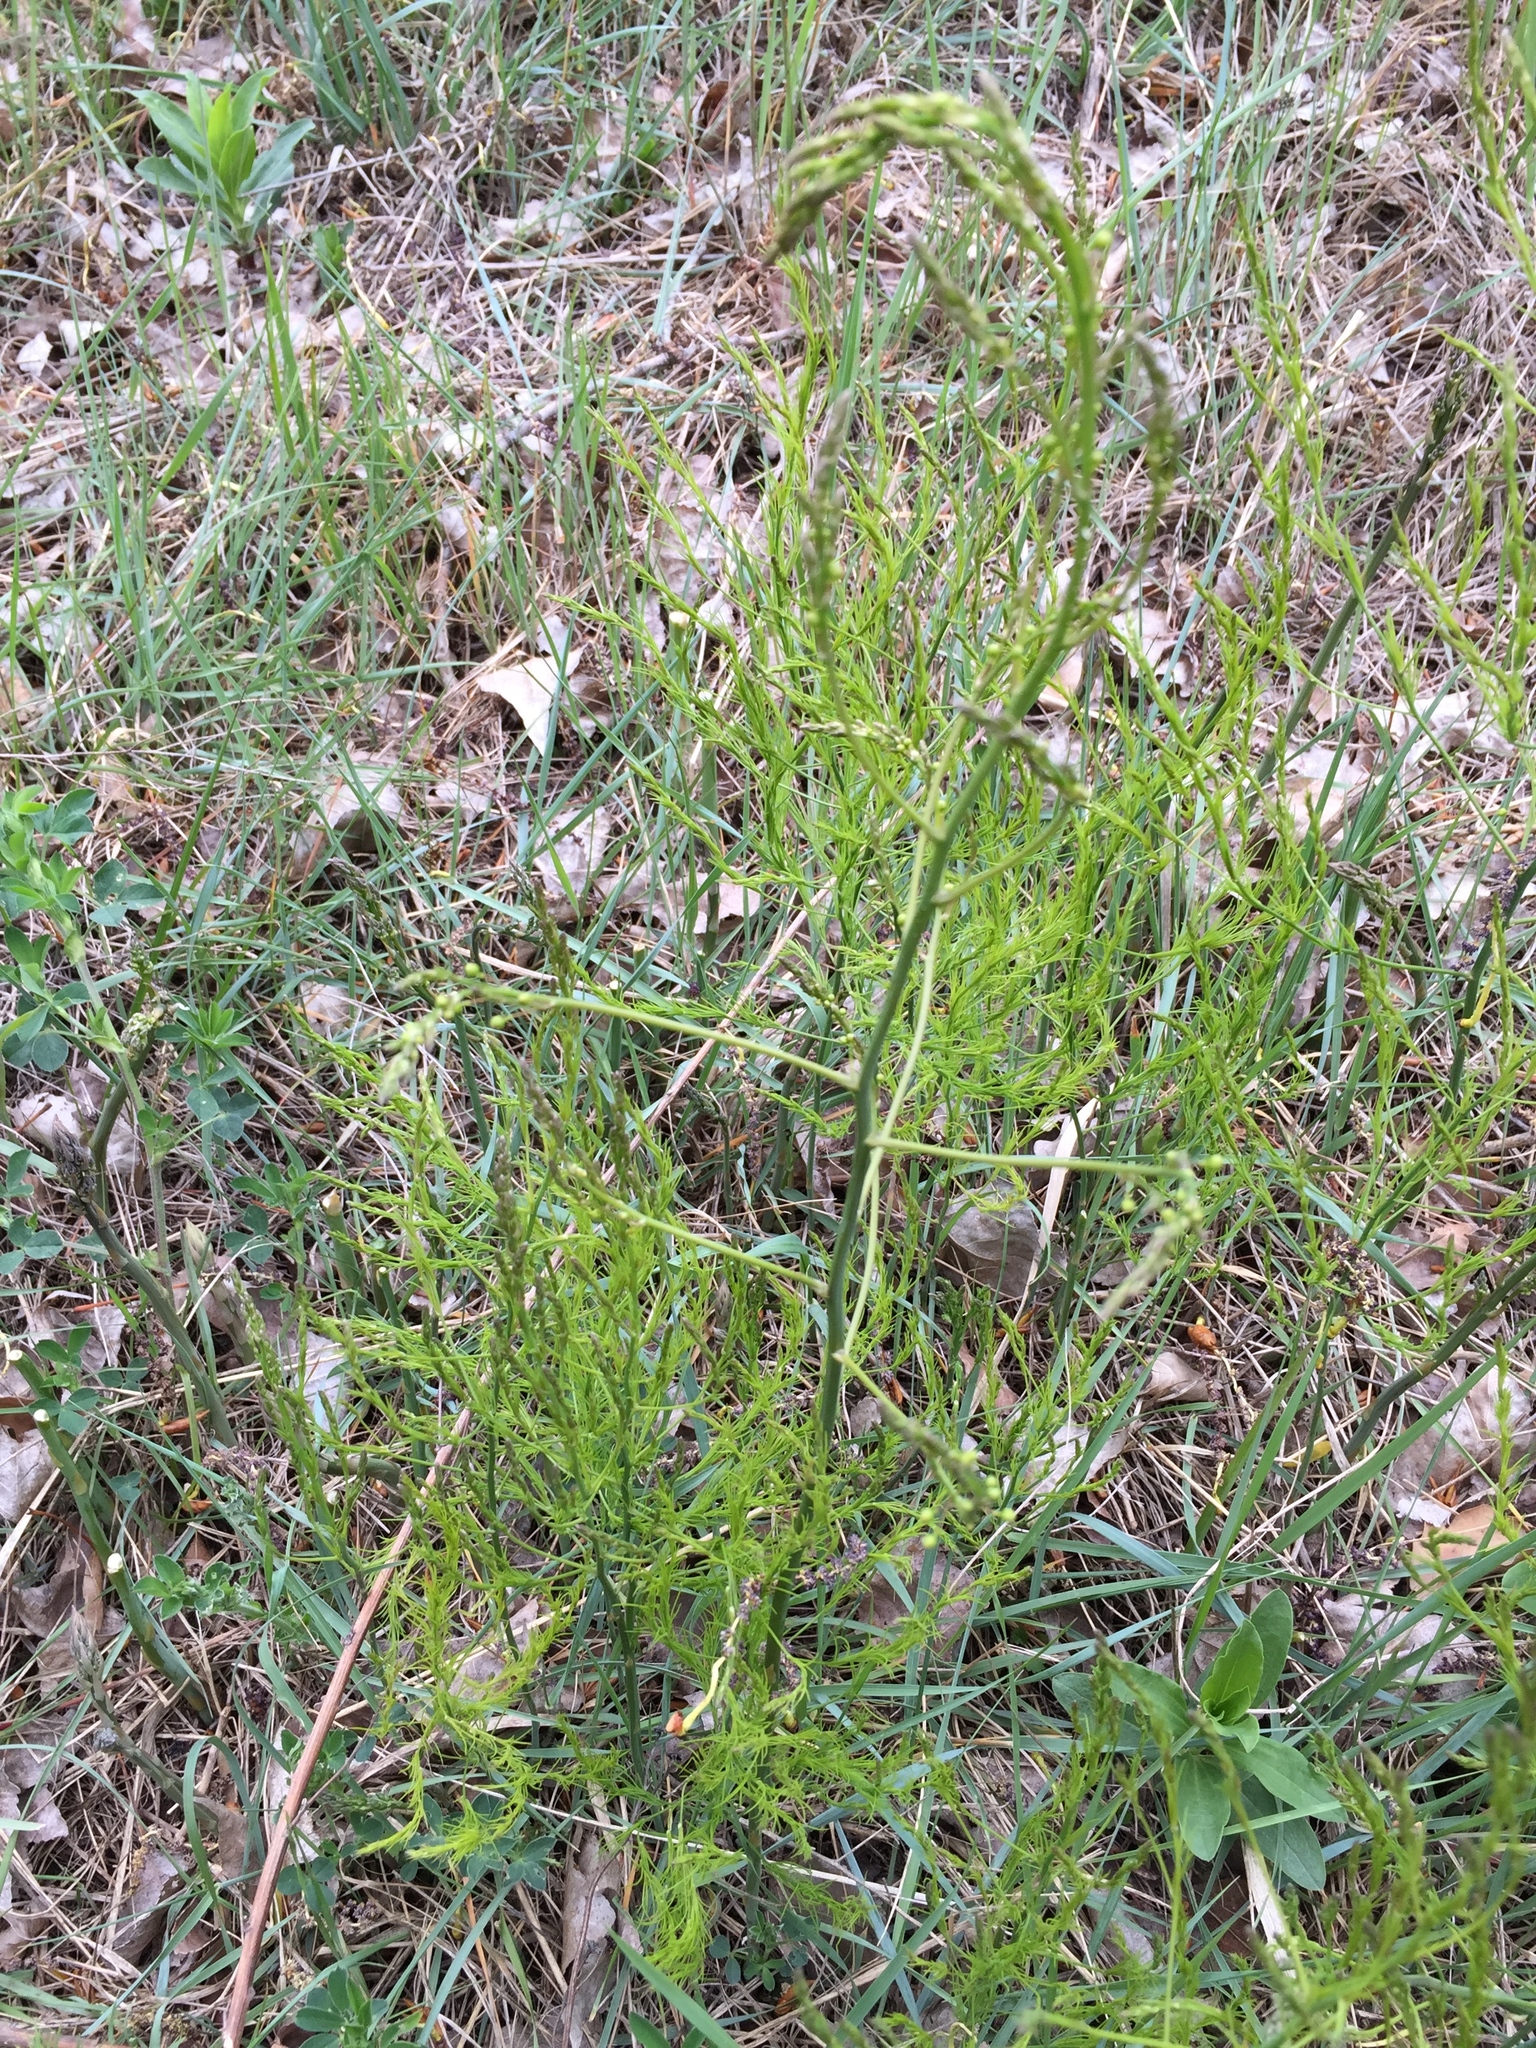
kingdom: Plantae
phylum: Tracheophyta
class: Liliopsida
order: Asparagales
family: Asparagaceae
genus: Asparagus
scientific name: Asparagus officinalis
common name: Garden asparagus
